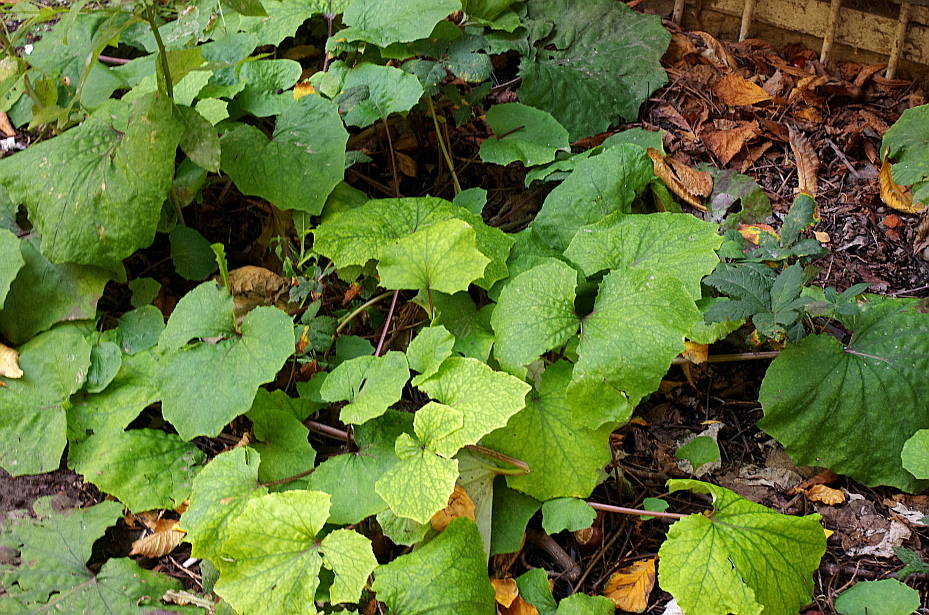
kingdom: Plantae
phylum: Tracheophyta
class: Magnoliopsida
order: Asterales
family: Asteraceae
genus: Tussilago
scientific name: Tussilago farfara
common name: Coltsfoot
